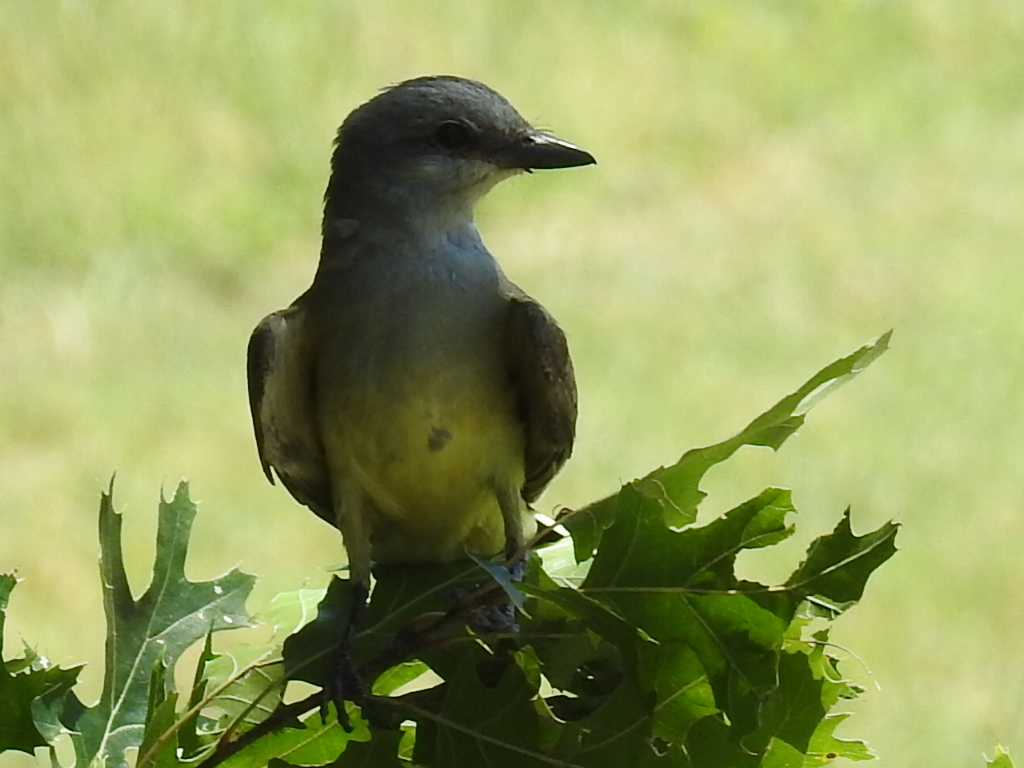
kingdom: Animalia
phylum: Chordata
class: Aves
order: Passeriformes
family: Tyrannidae
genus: Tyrannus
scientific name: Tyrannus verticalis
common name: Western kingbird
